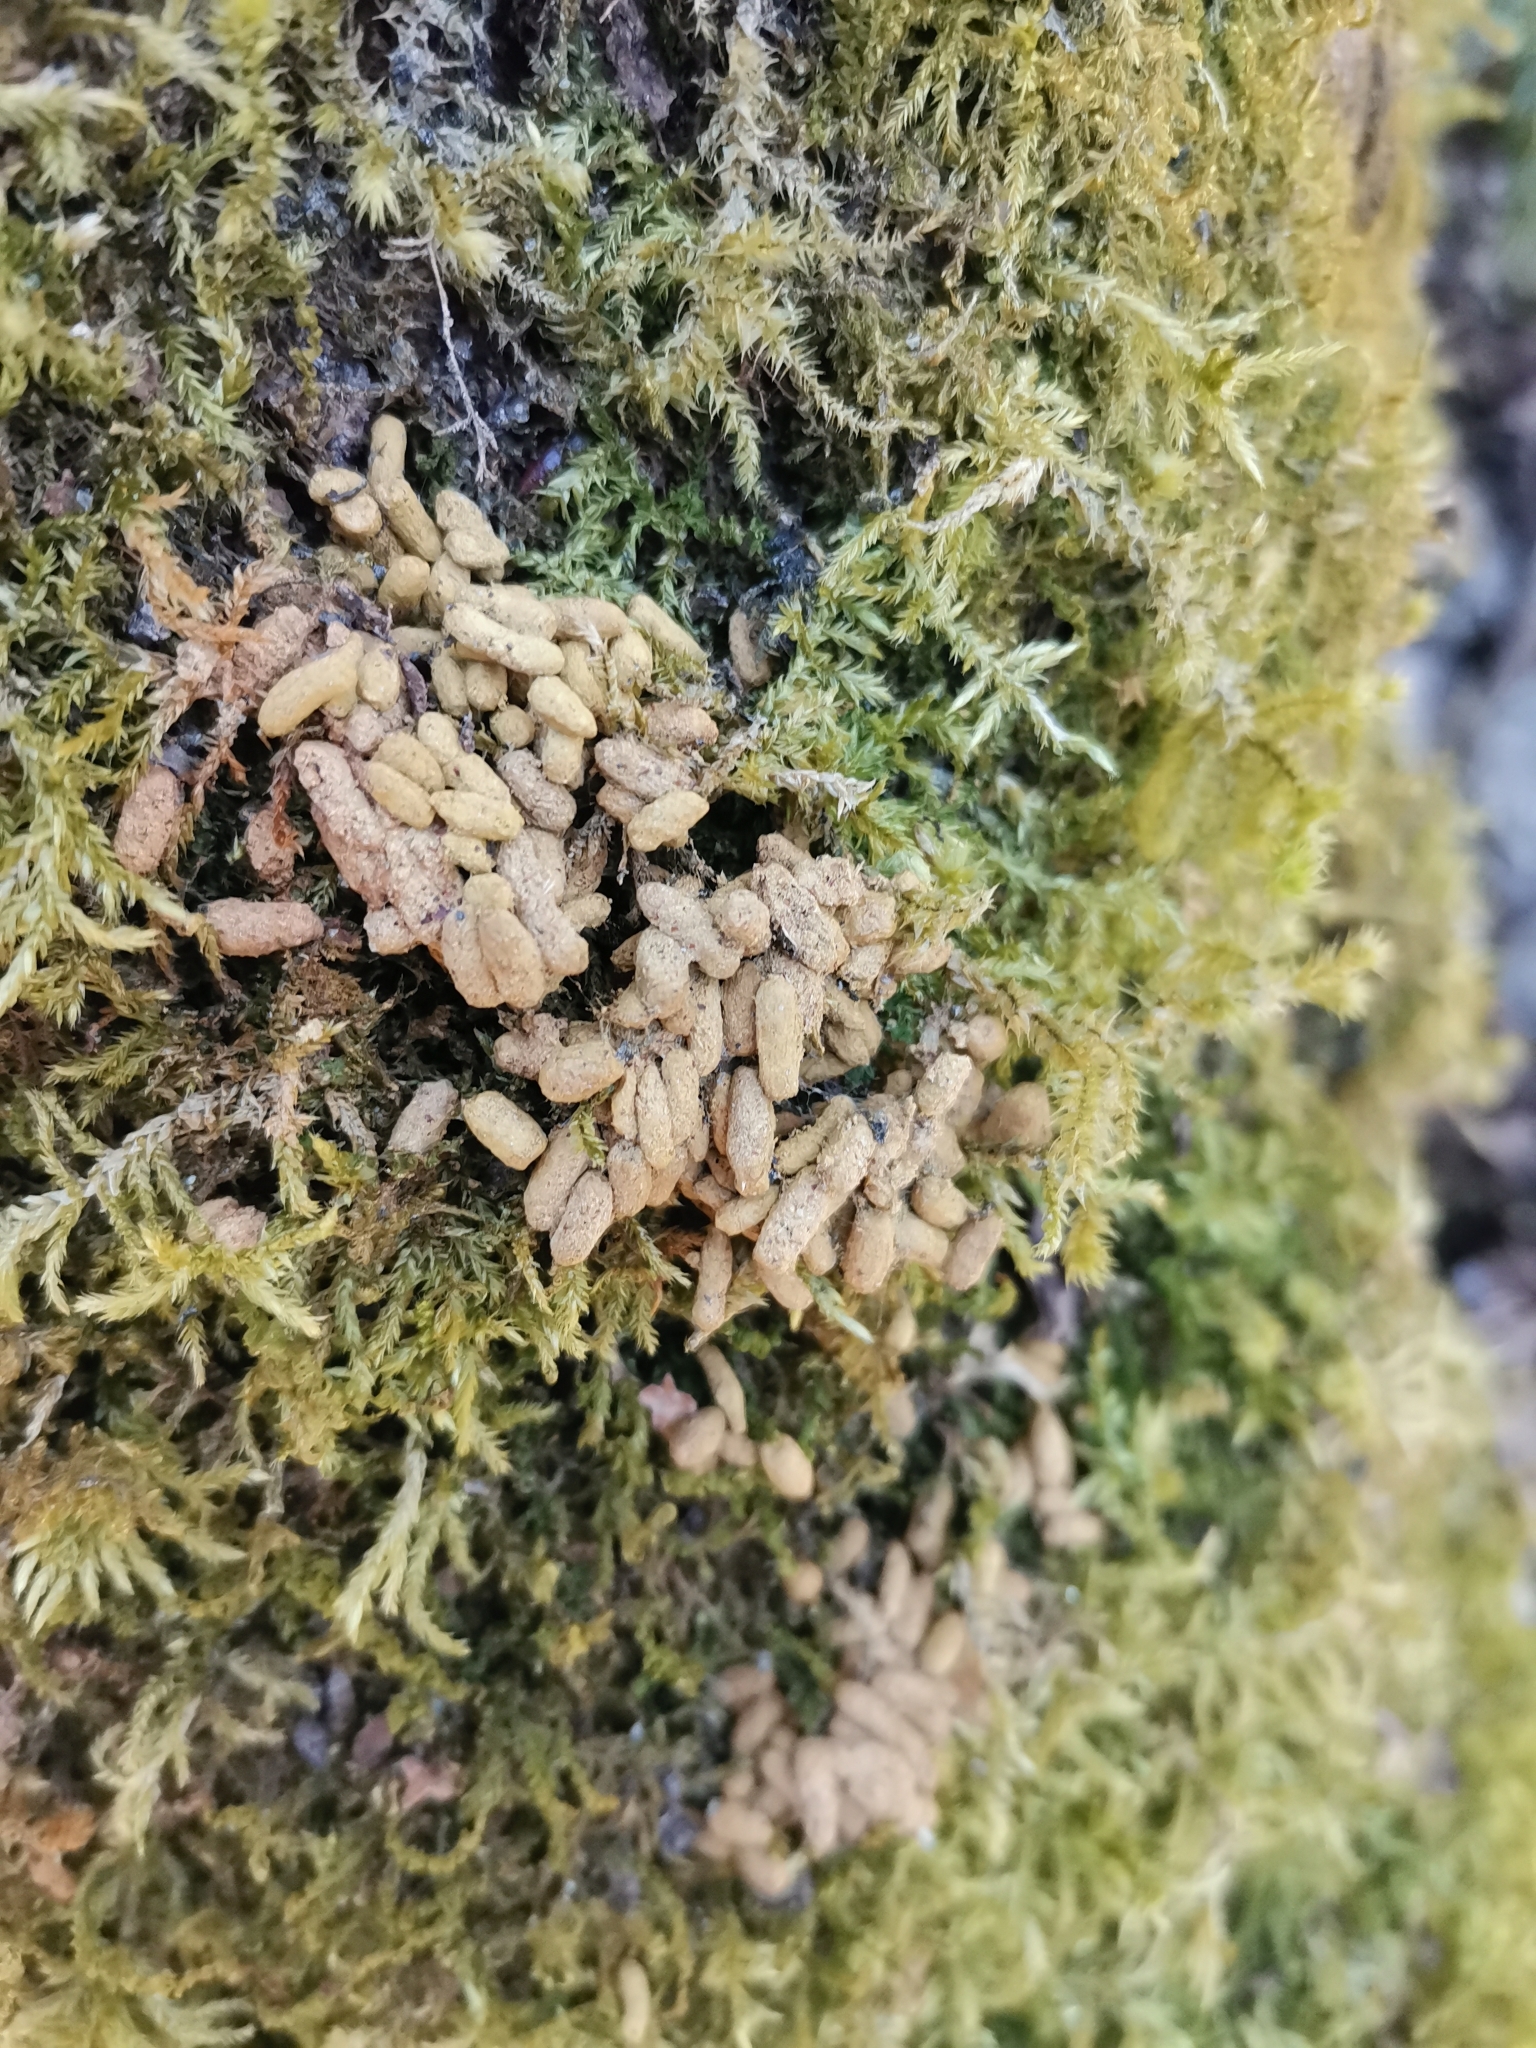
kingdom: Animalia
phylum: Chordata
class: Mammalia
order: Rodentia
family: Sciuridae
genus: Pteromys
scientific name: Pteromys volans
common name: Siberian flying squirrel
